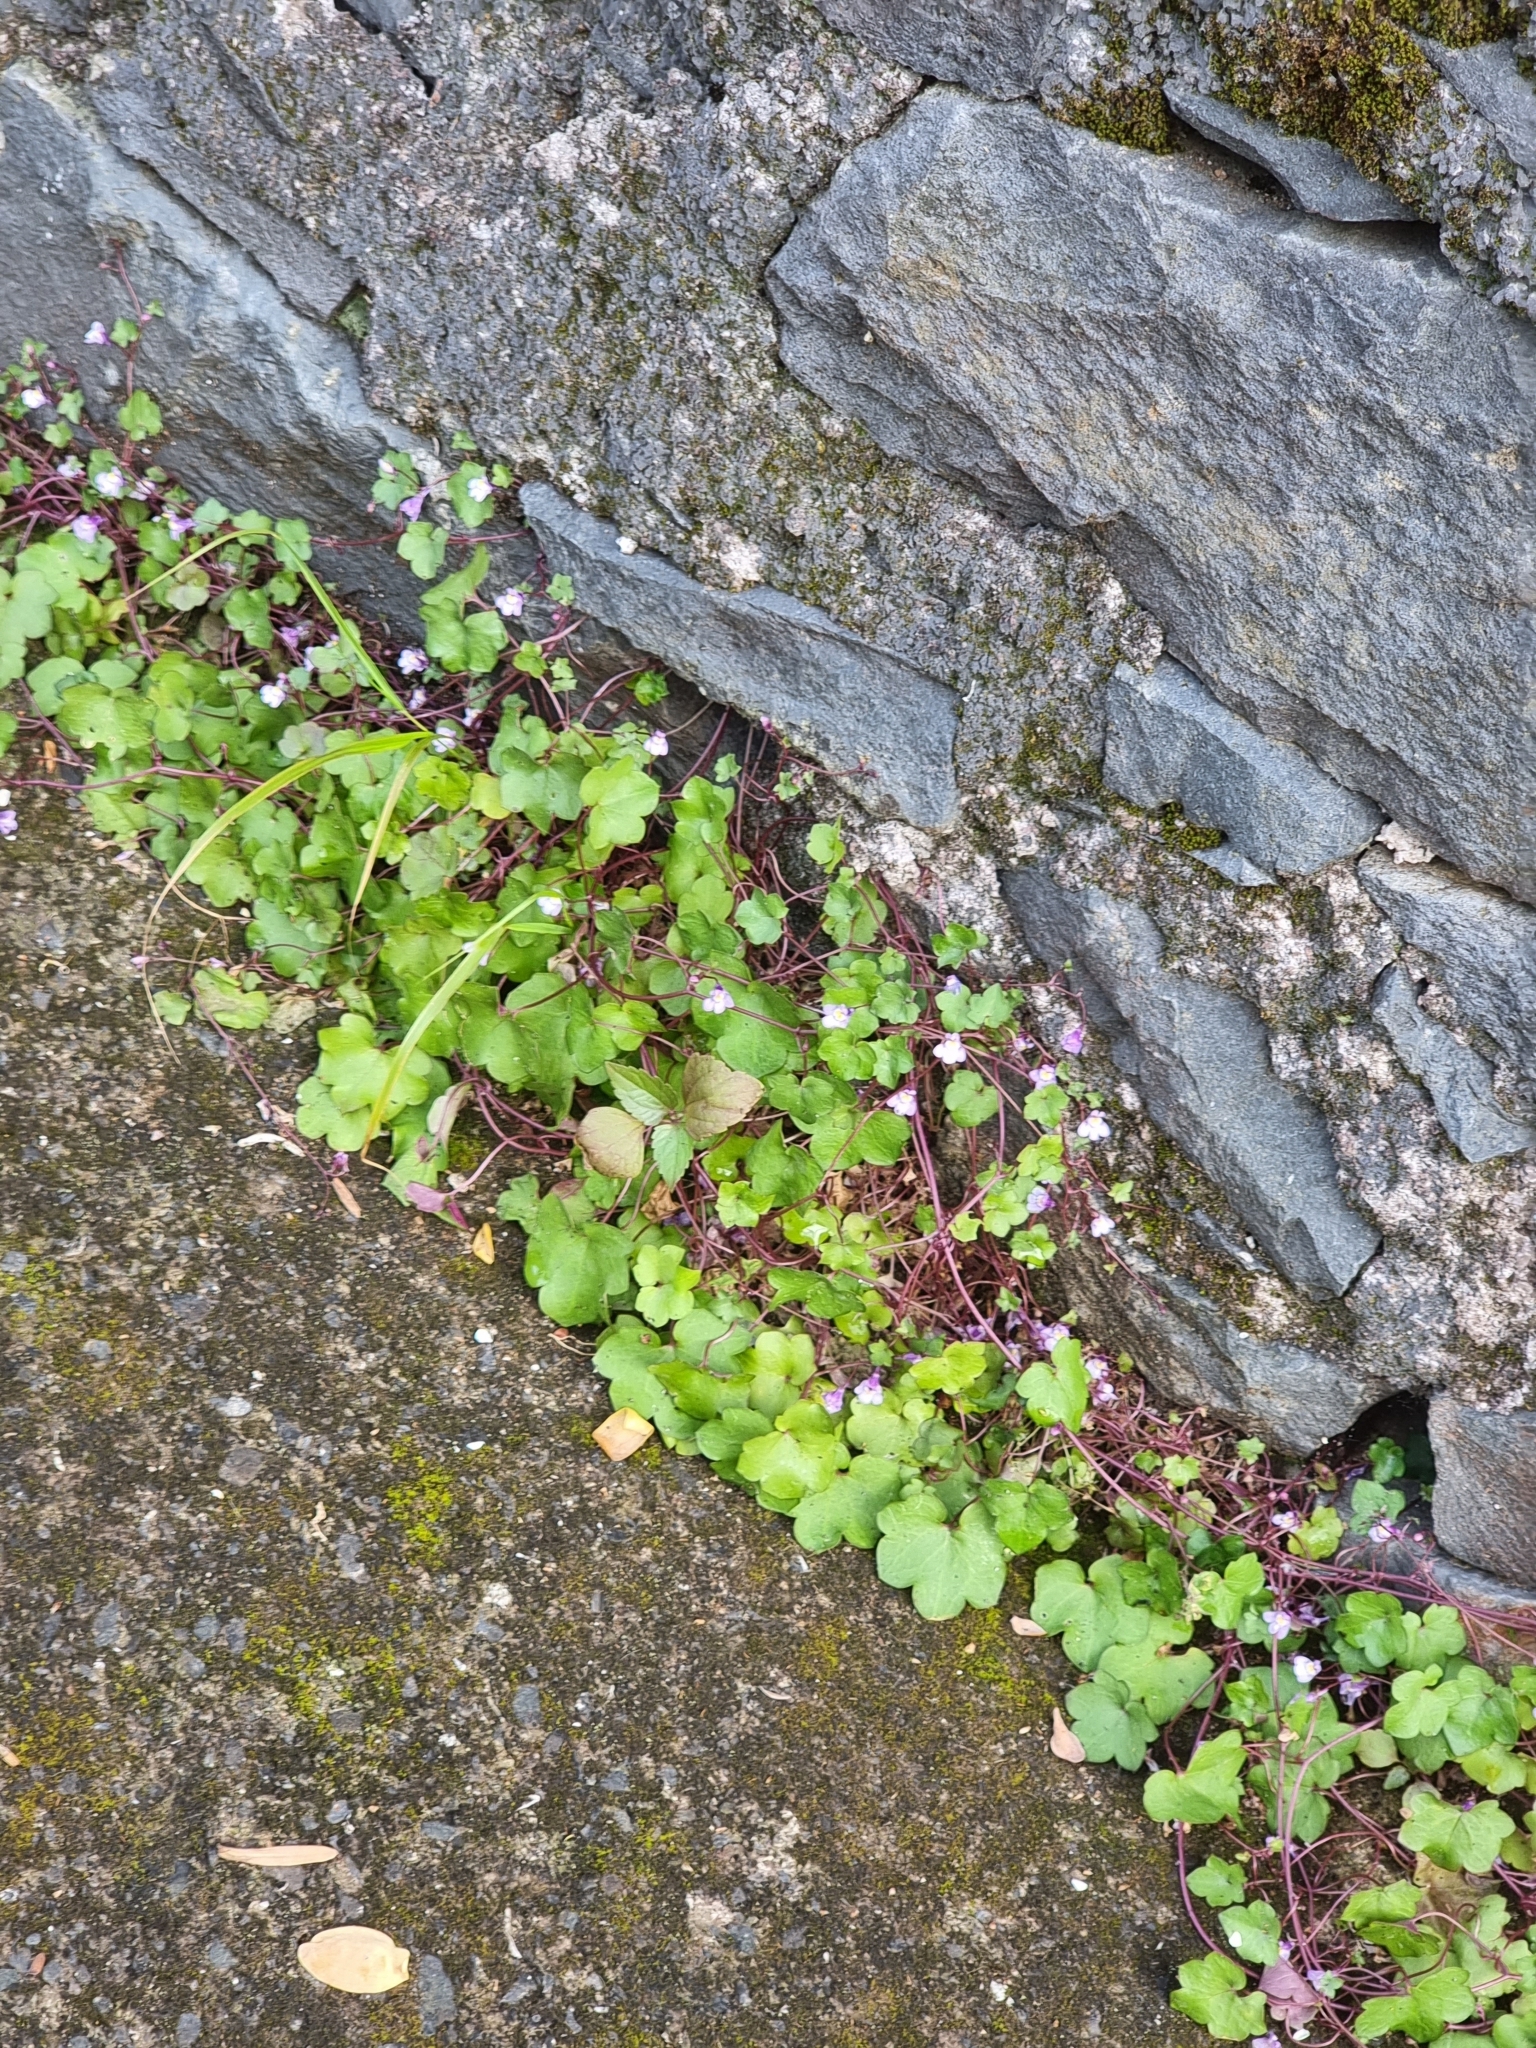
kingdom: Plantae
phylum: Tracheophyta
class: Magnoliopsida
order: Lamiales
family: Plantaginaceae
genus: Cymbalaria
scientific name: Cymbalaria muralis
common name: Ivy-leaved toadflax
